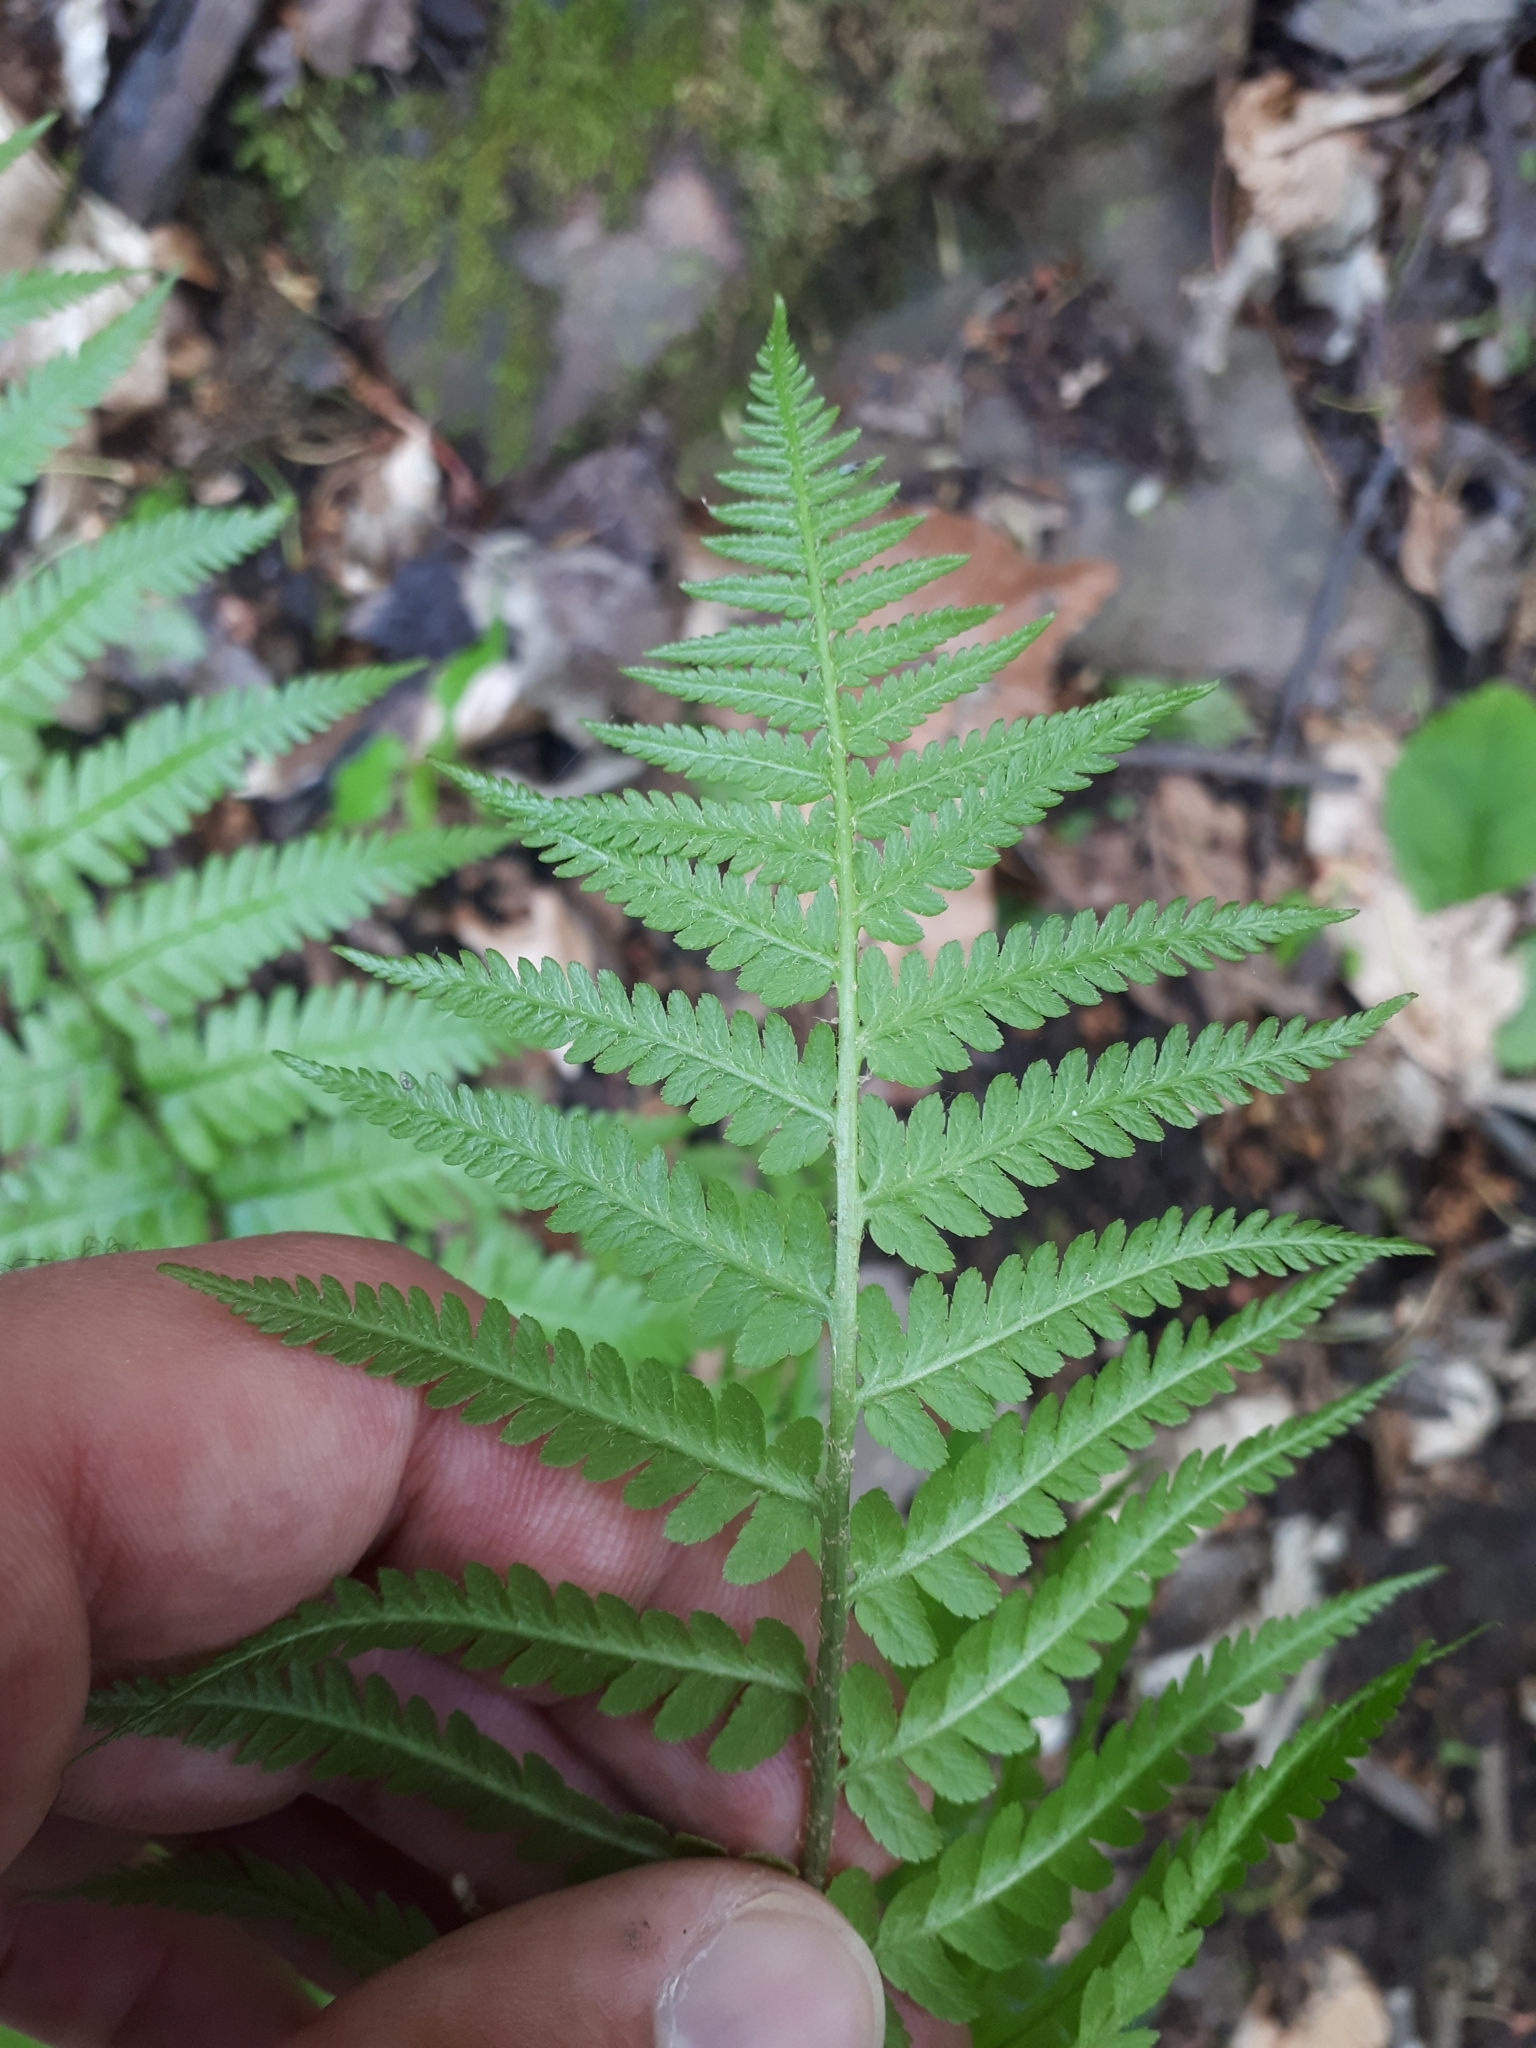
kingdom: Plantae
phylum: Tracheophyta
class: Polypodiopsida
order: Polypodiales
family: Dryopteridaceae
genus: Dryopteris
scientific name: Dryopteris filix-mas
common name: Male fern
